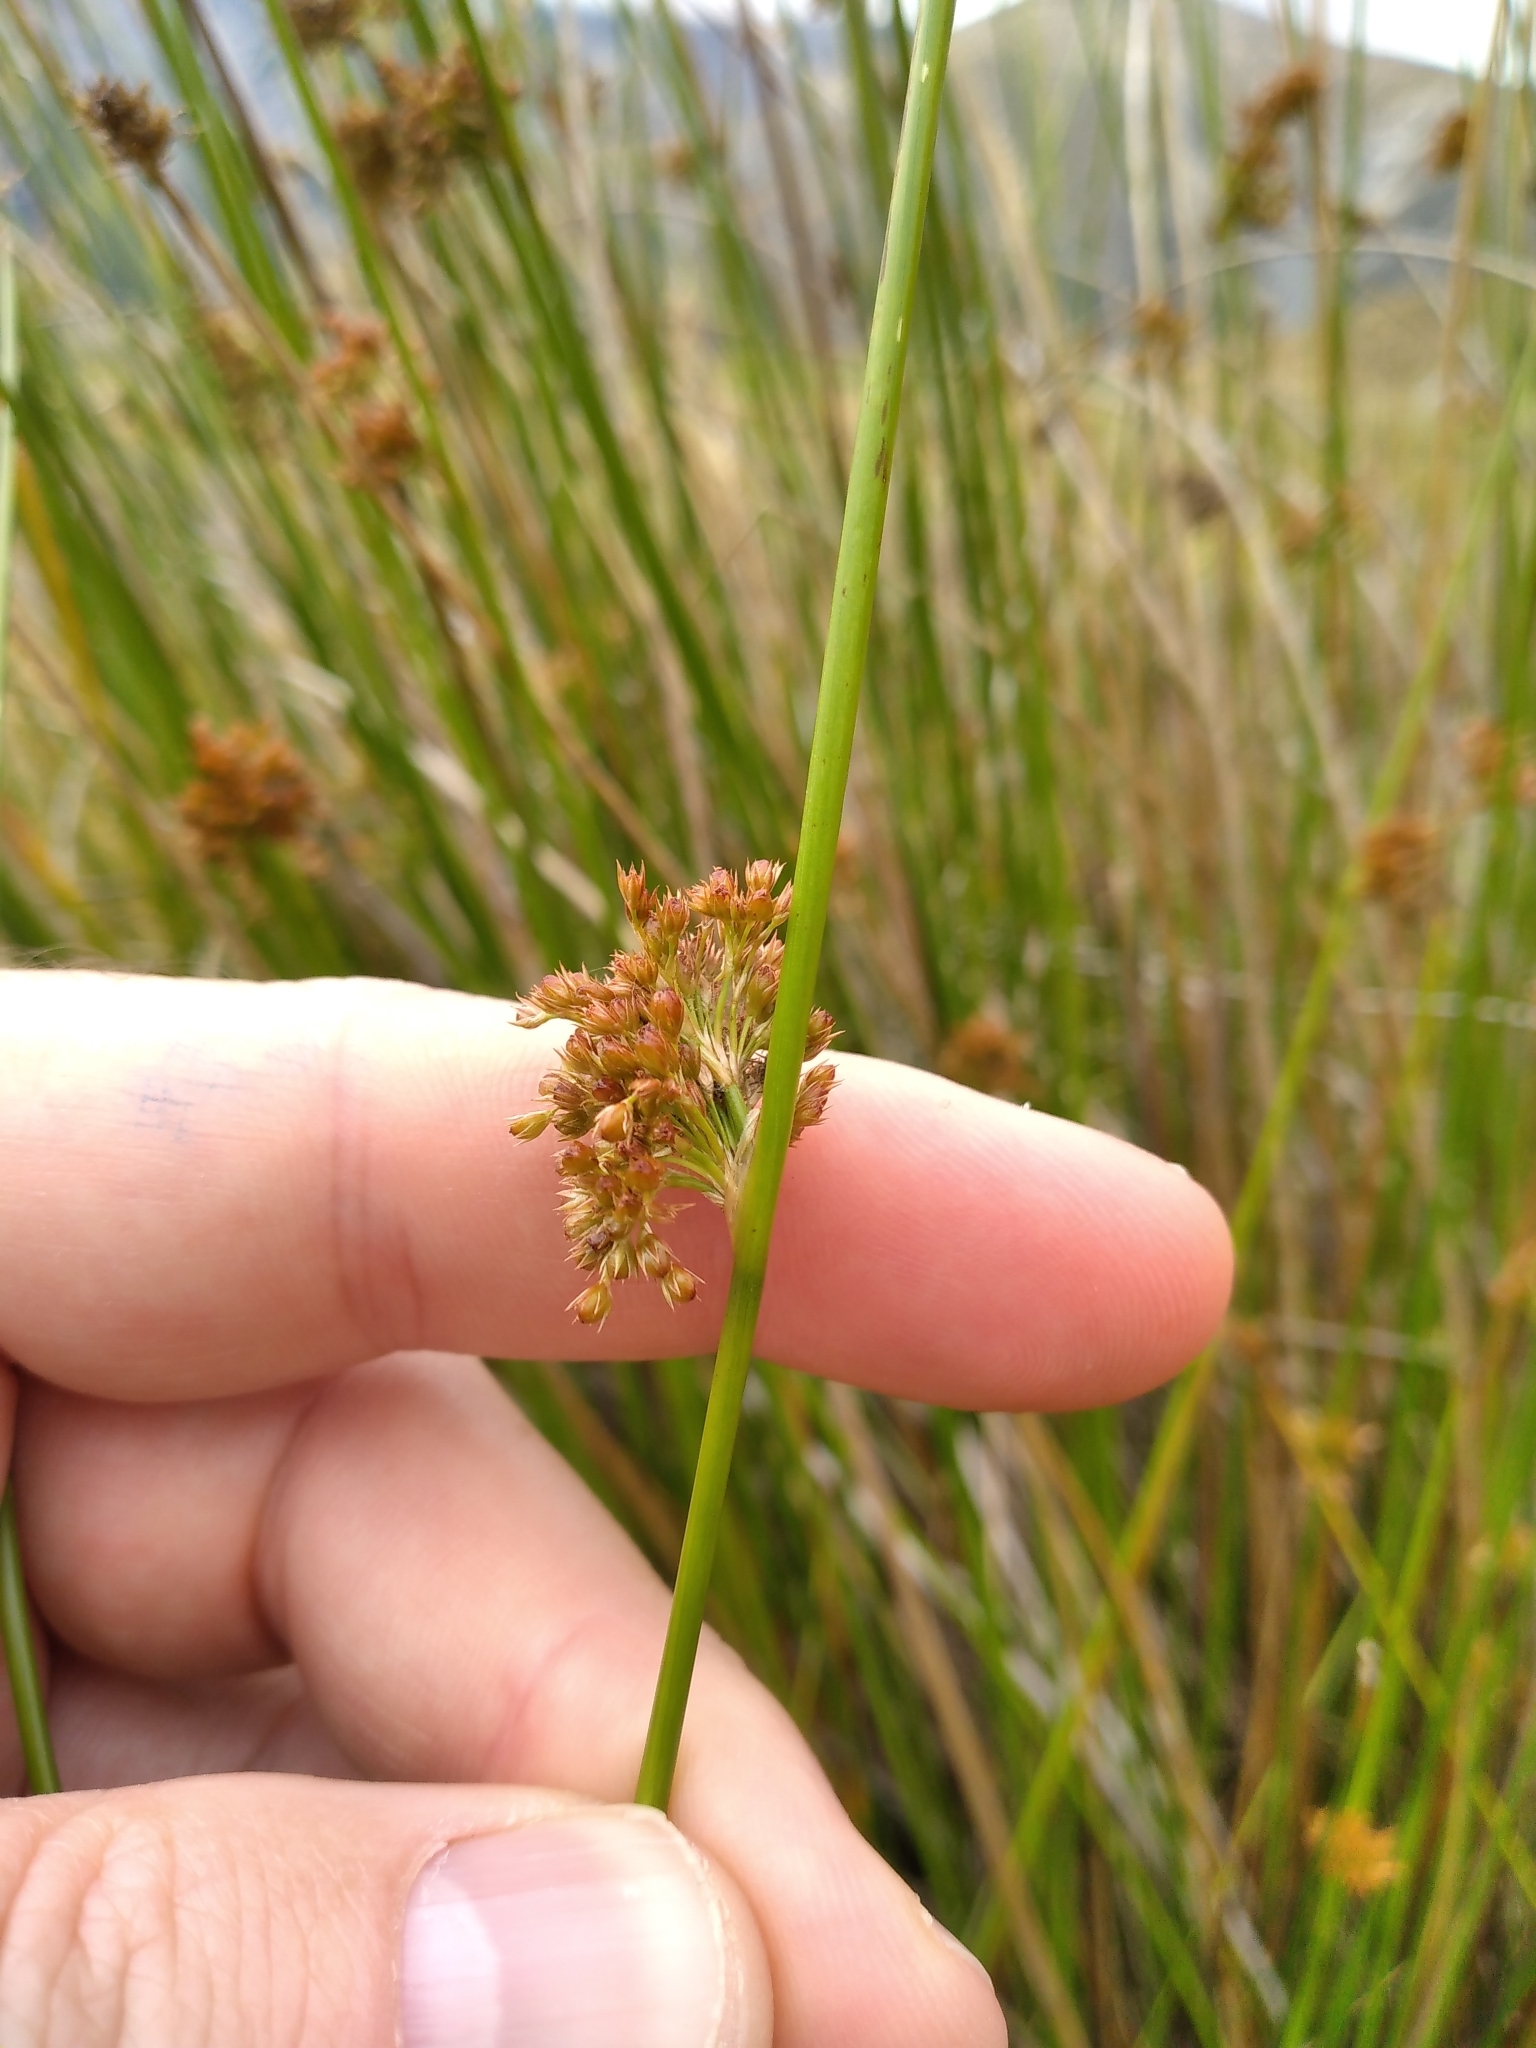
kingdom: Plantae
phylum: Tracheophyta
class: Liliopsida
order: Poales
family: Juncaceae
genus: Juncus
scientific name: Juncus effusus
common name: Soft rush
